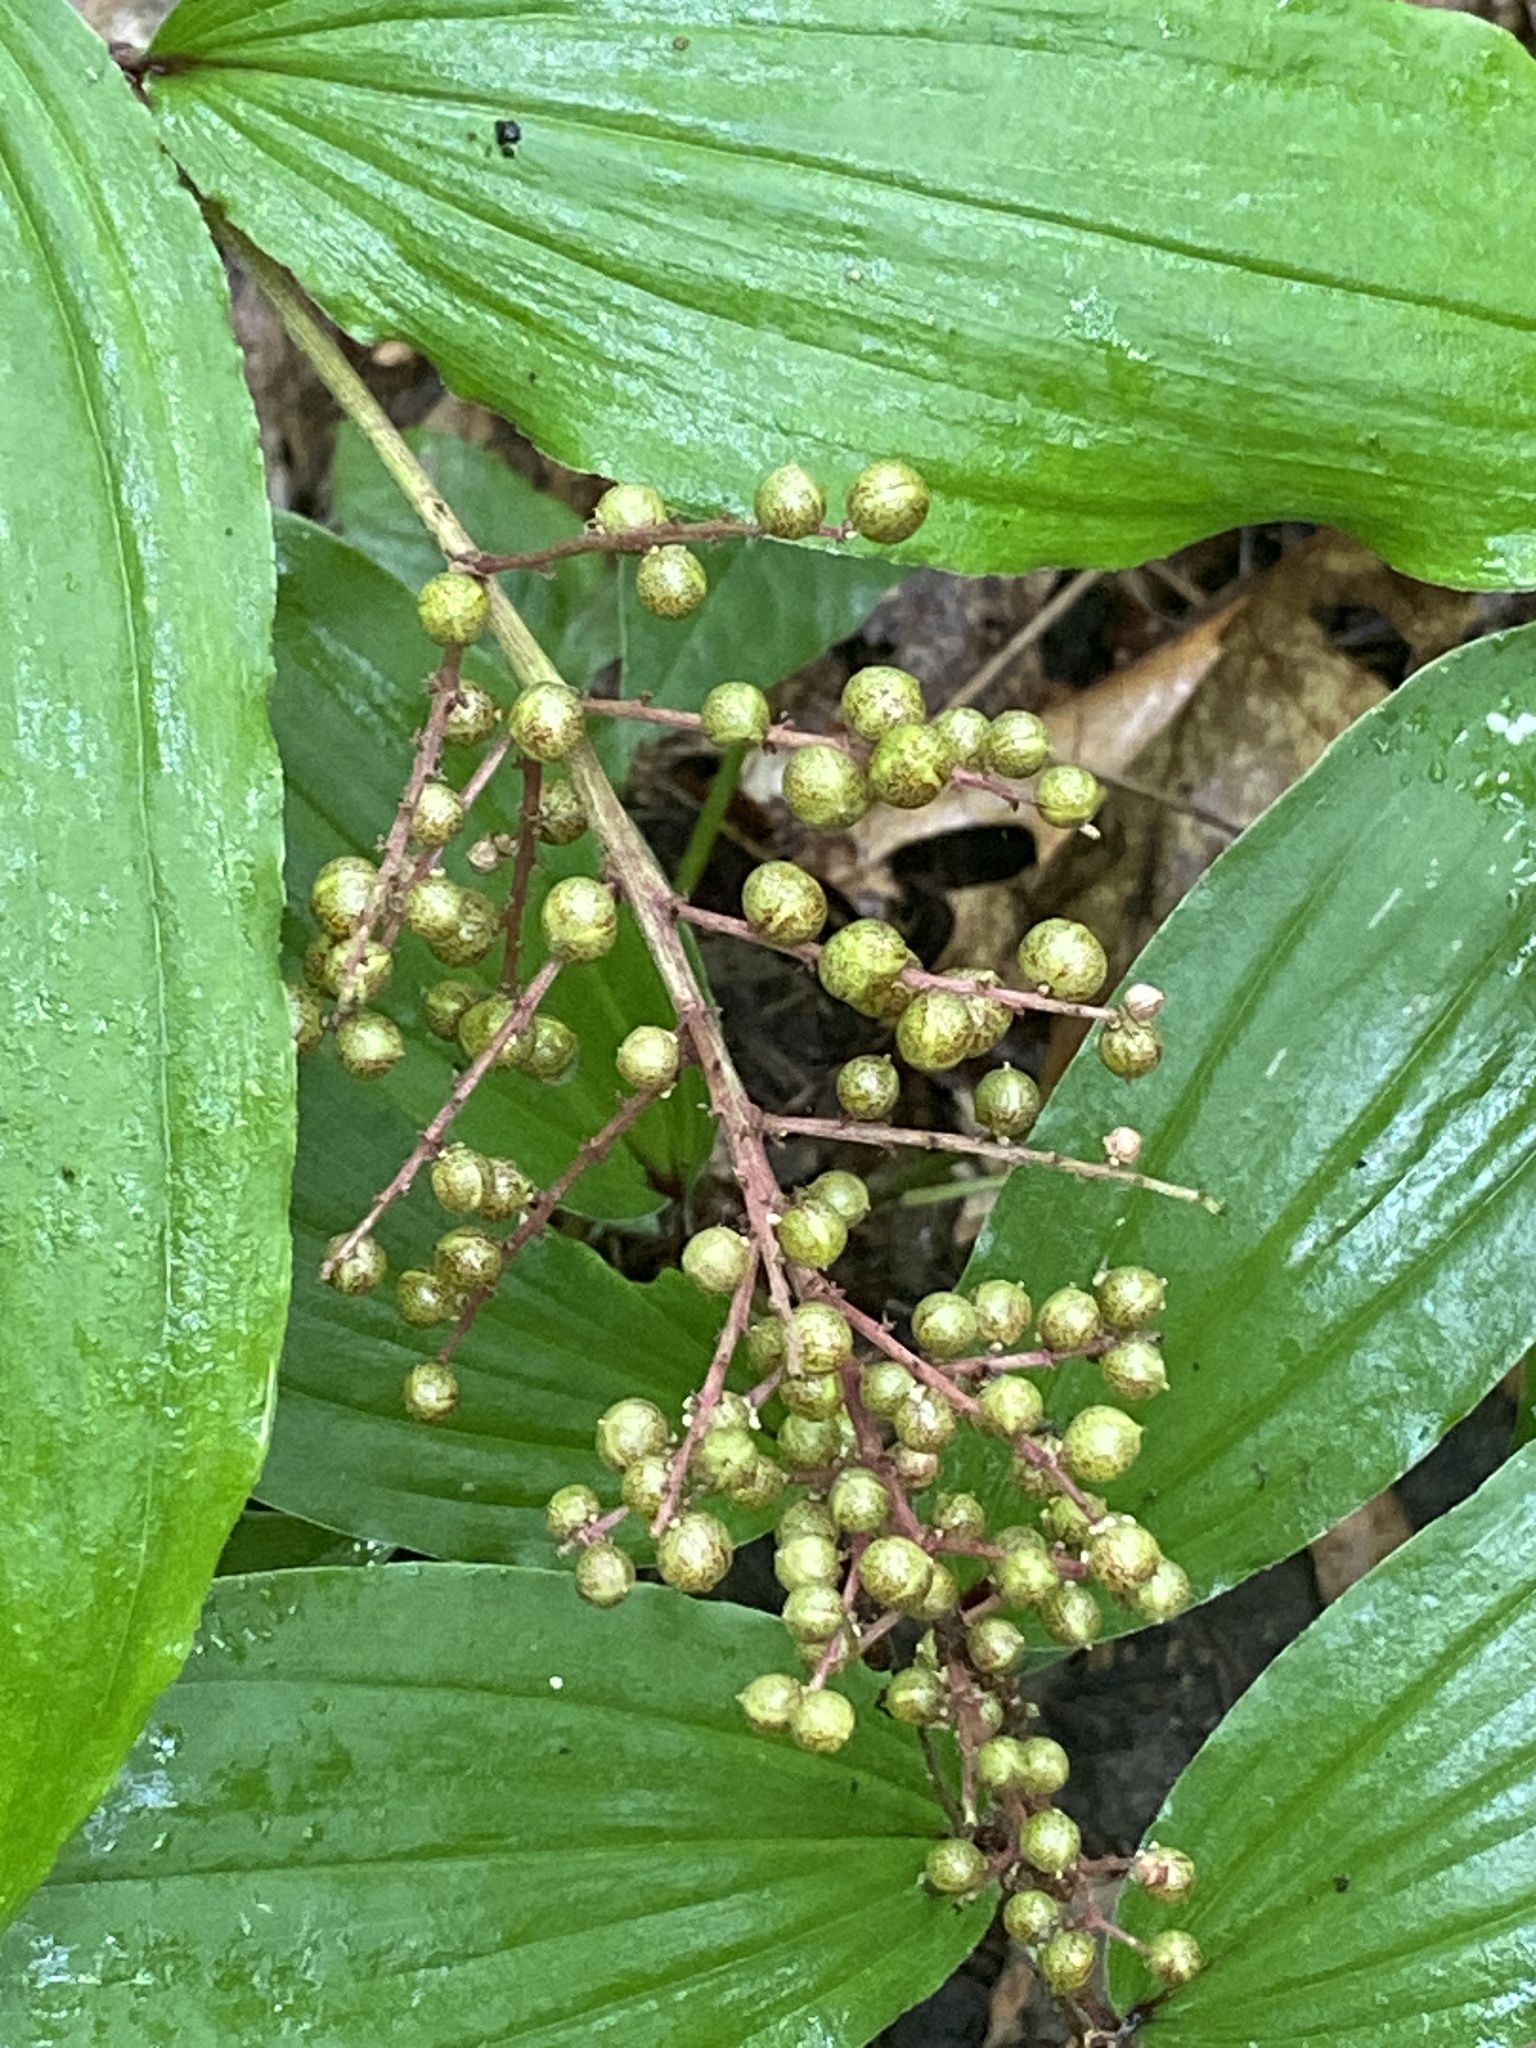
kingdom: Plantae
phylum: Tracheophyta
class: Liliopsida
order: Asparagales
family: Asparagaceae
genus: Maianthemum
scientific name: Maianthemum racemosum
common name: False spikenard
